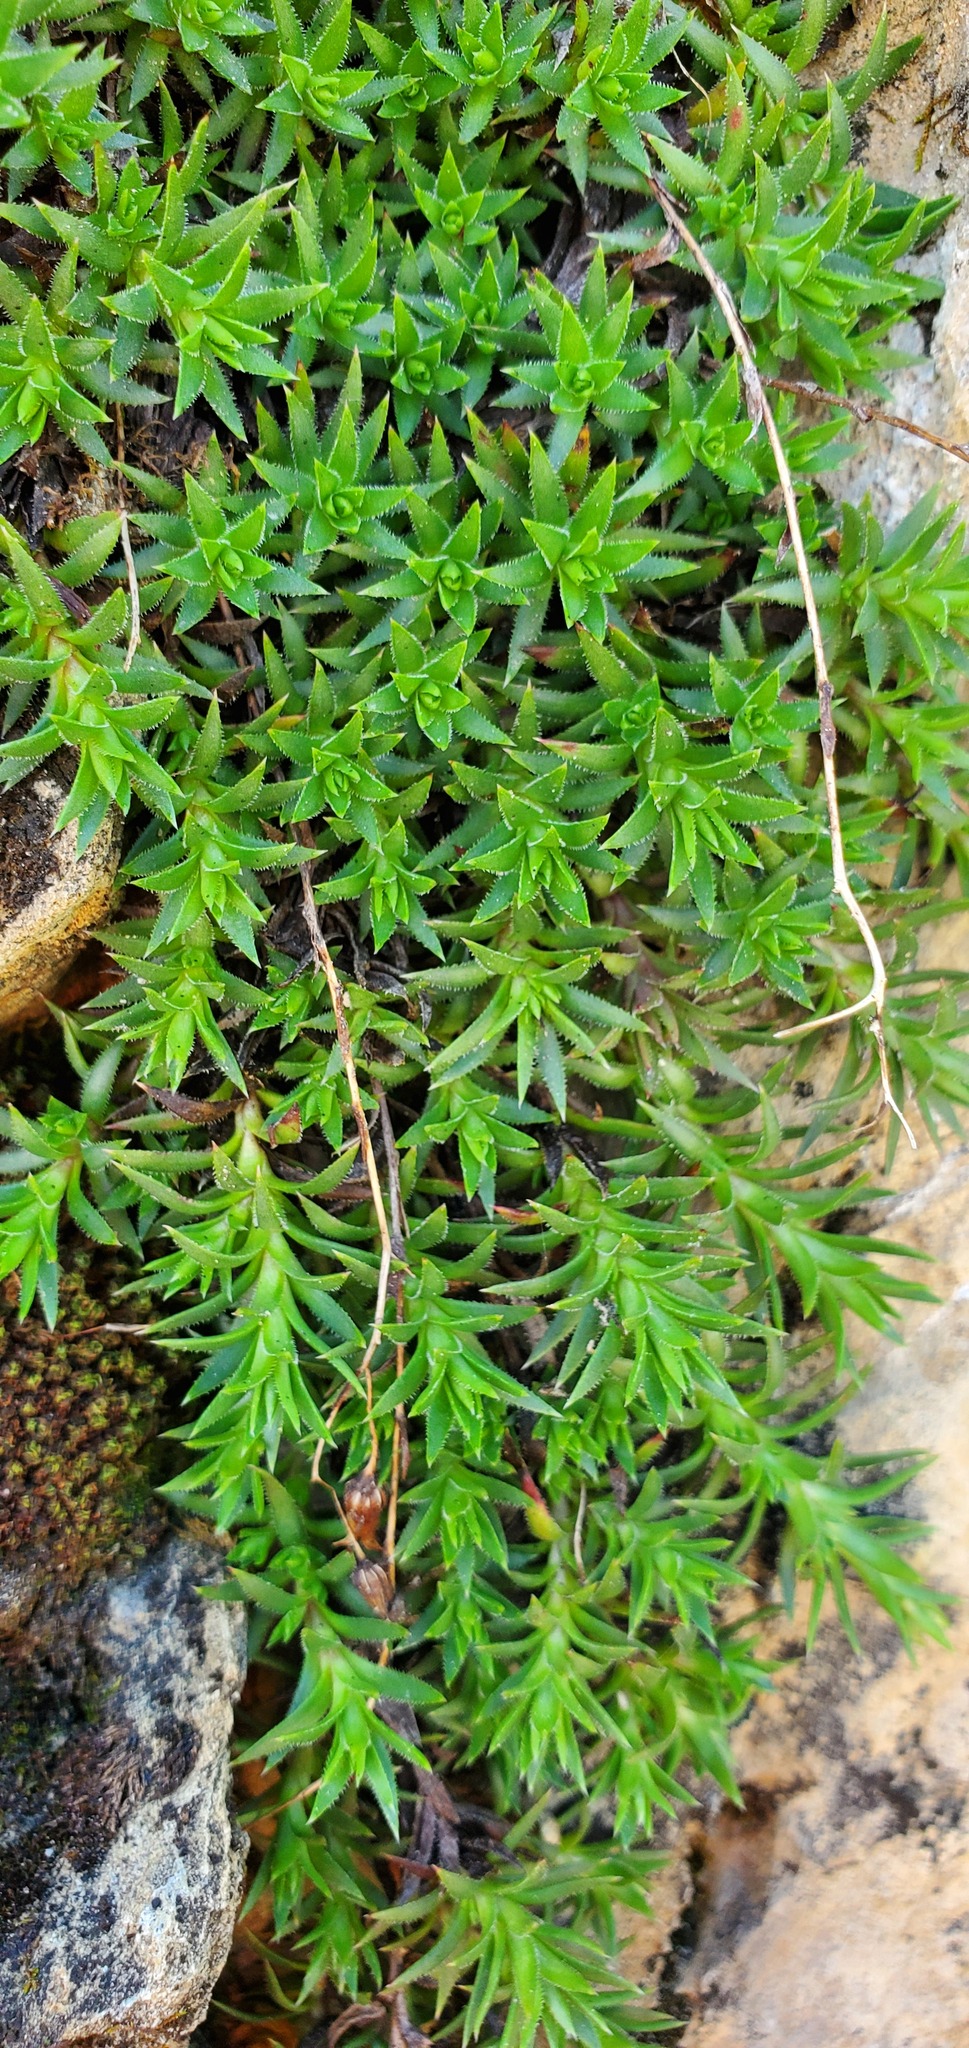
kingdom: Plantae
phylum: Tracheophyta
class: Magnoliopsida
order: Saxifragales
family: Saxifragaceae
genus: Saxifraga
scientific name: Saxifraga bronchialis
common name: Matted saxifrage
